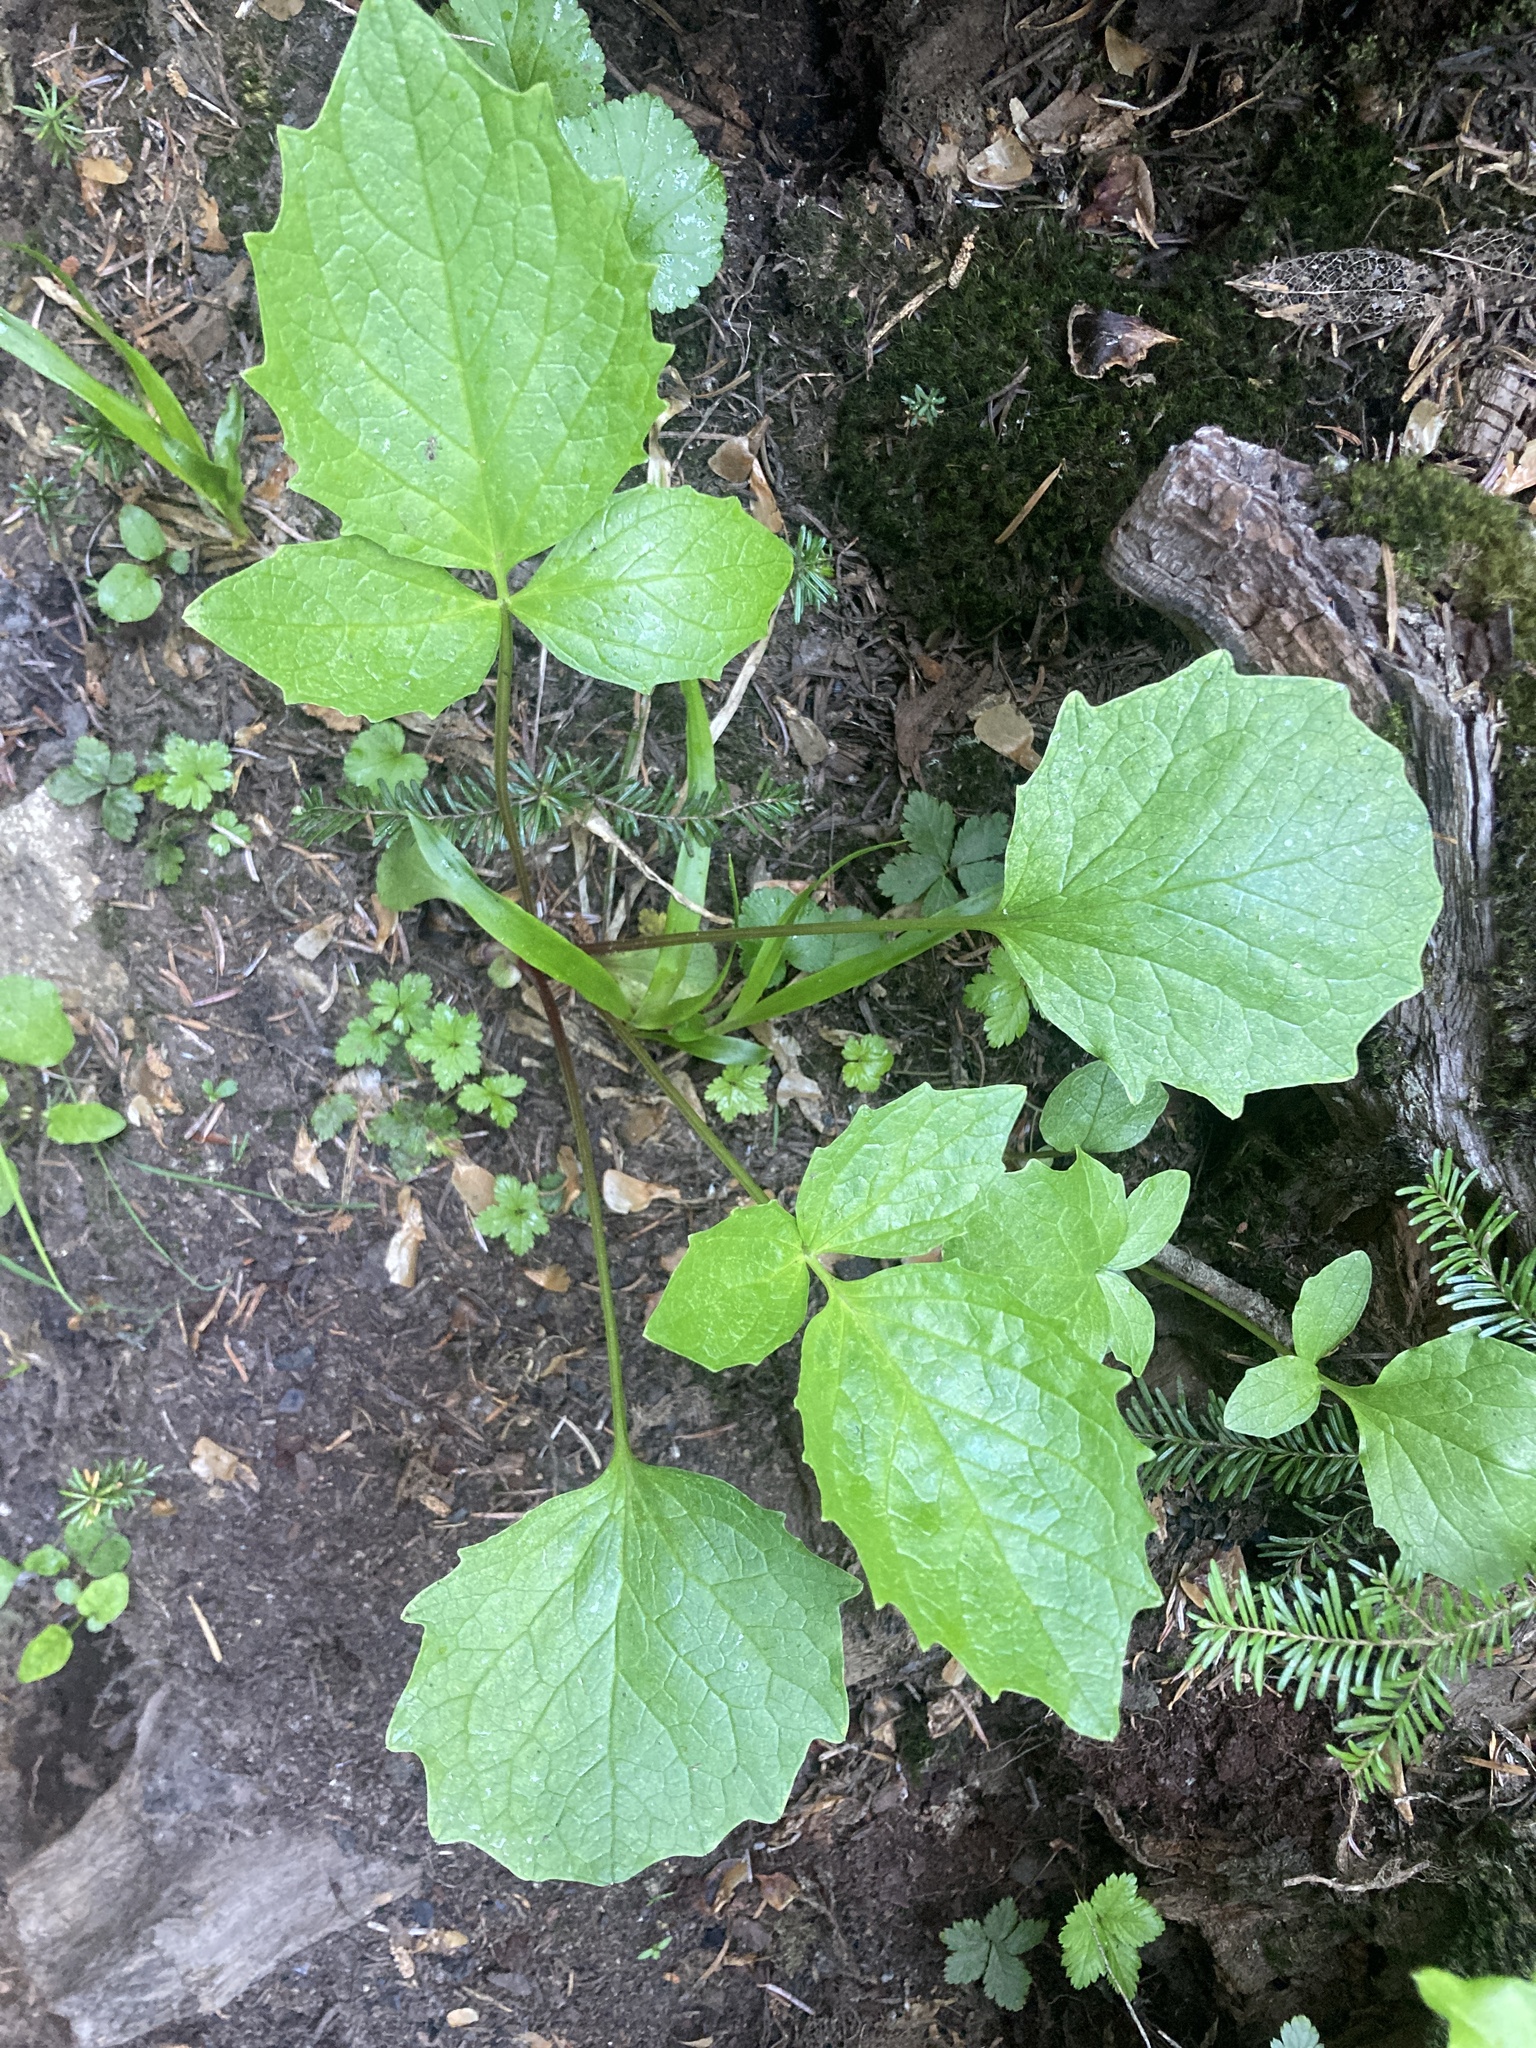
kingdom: Plantae
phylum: Tracheophyta
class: Magnoliopsida
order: Dipsacales
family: Caprifoliaceae
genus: Valeriana
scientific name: Valeriana sitchensis
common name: Pacific valerian
